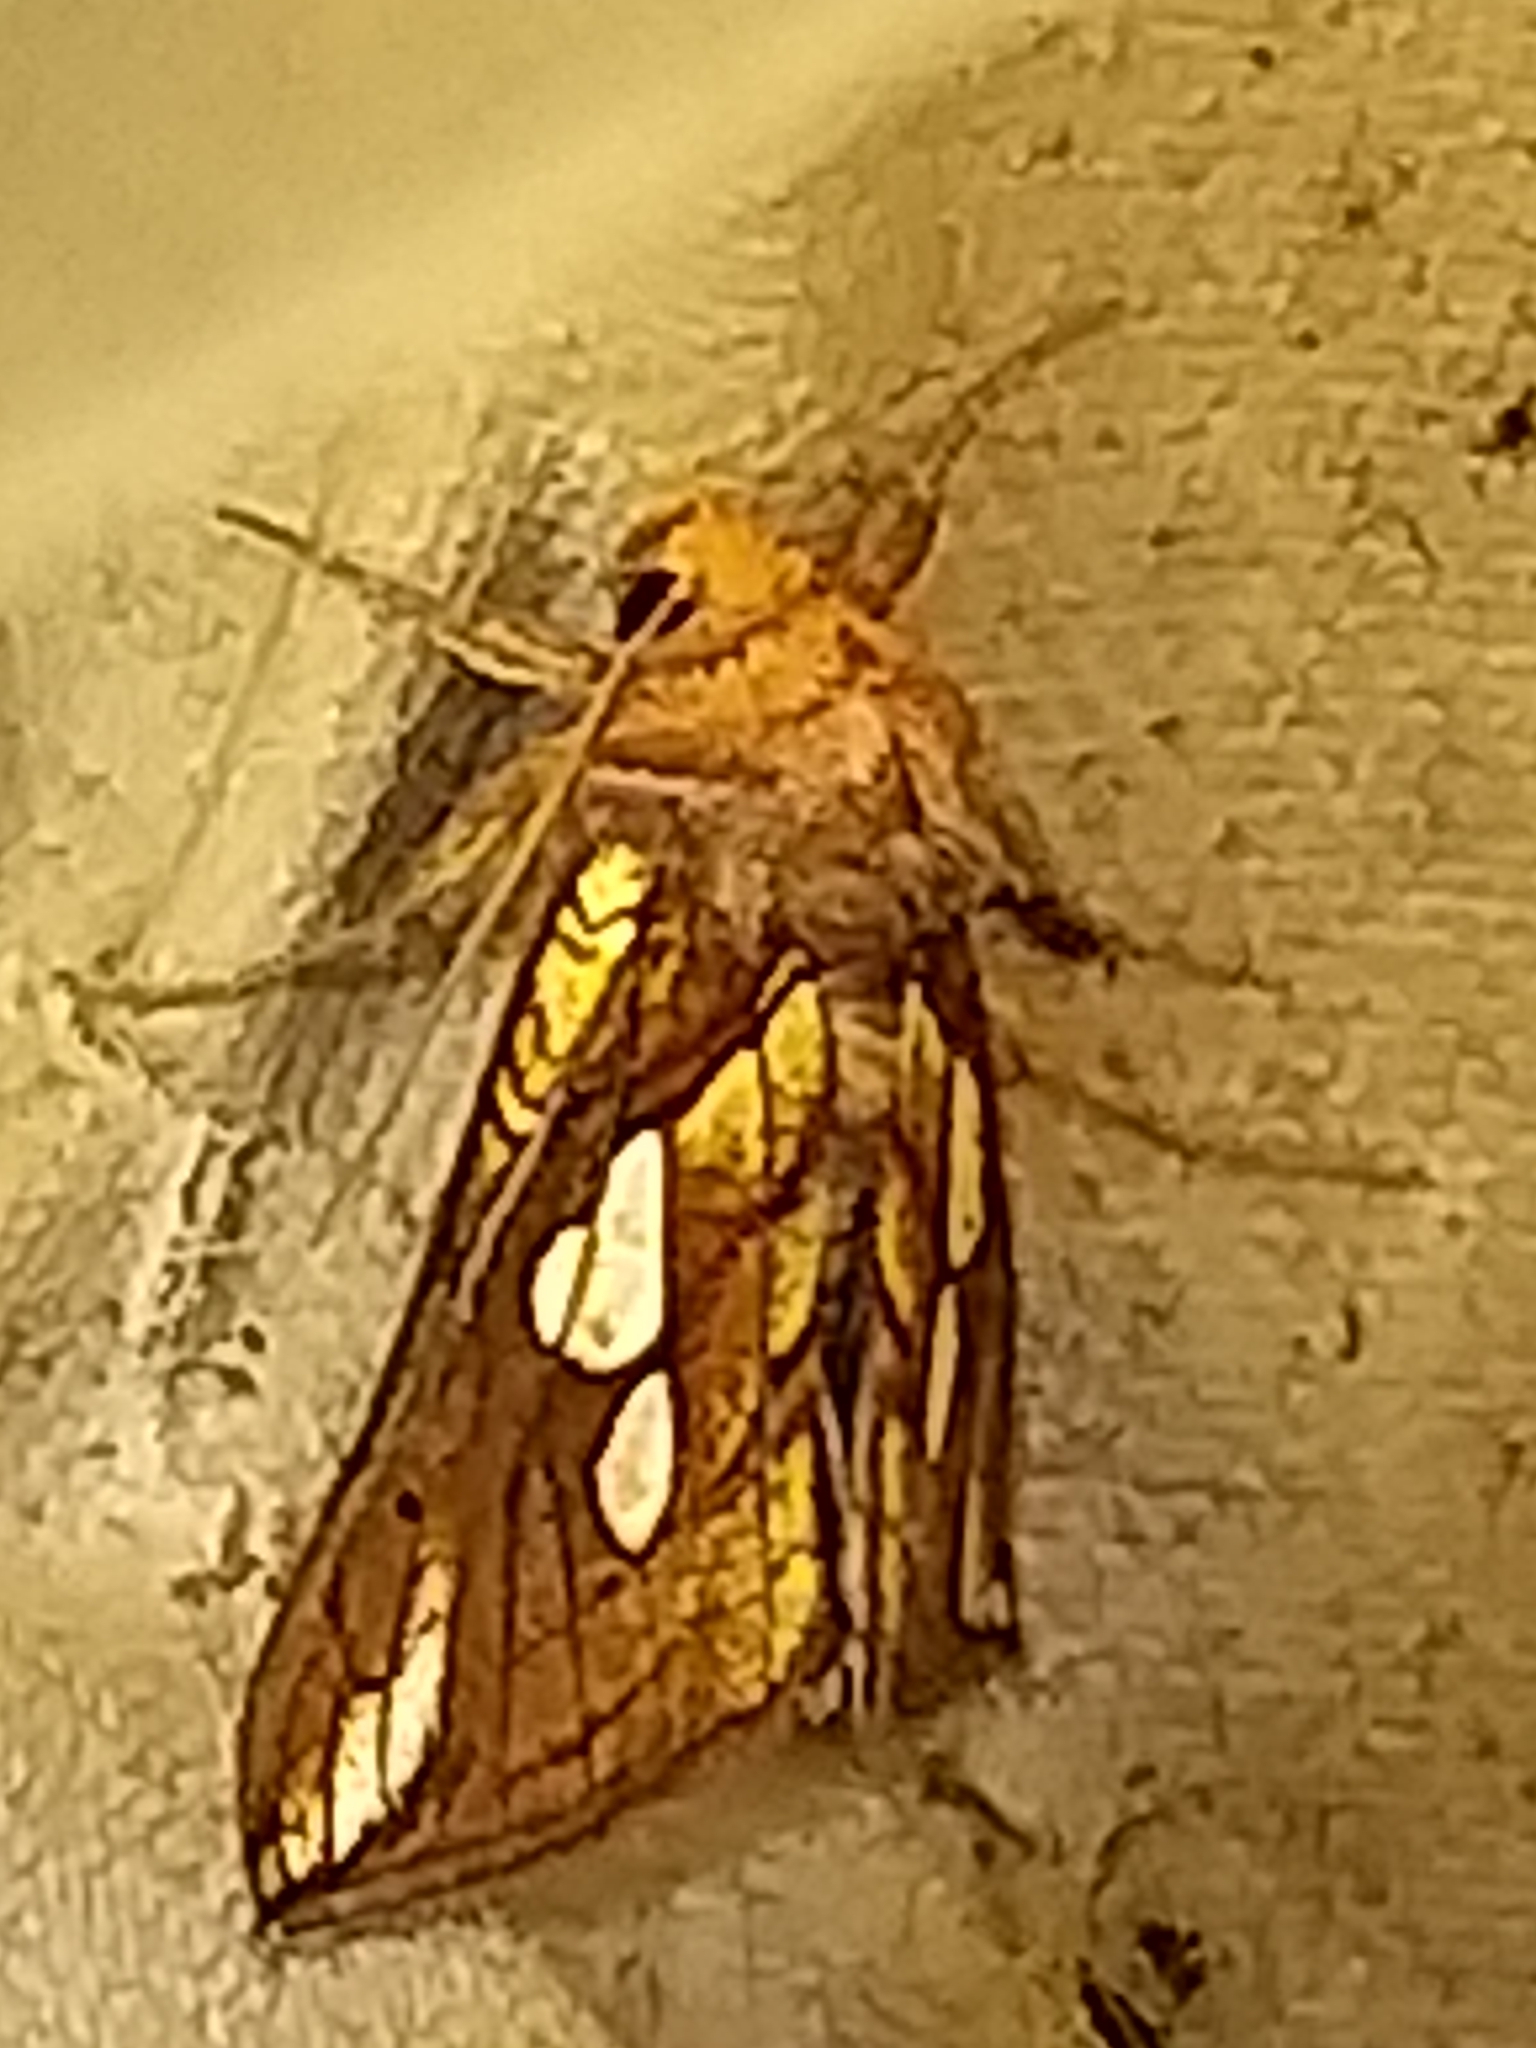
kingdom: Animalia
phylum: Arthropoda
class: Insecta
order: Lepidoptera
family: Noctuidae
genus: Plusia
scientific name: Plusia putnami
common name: Lempke's gold spot
